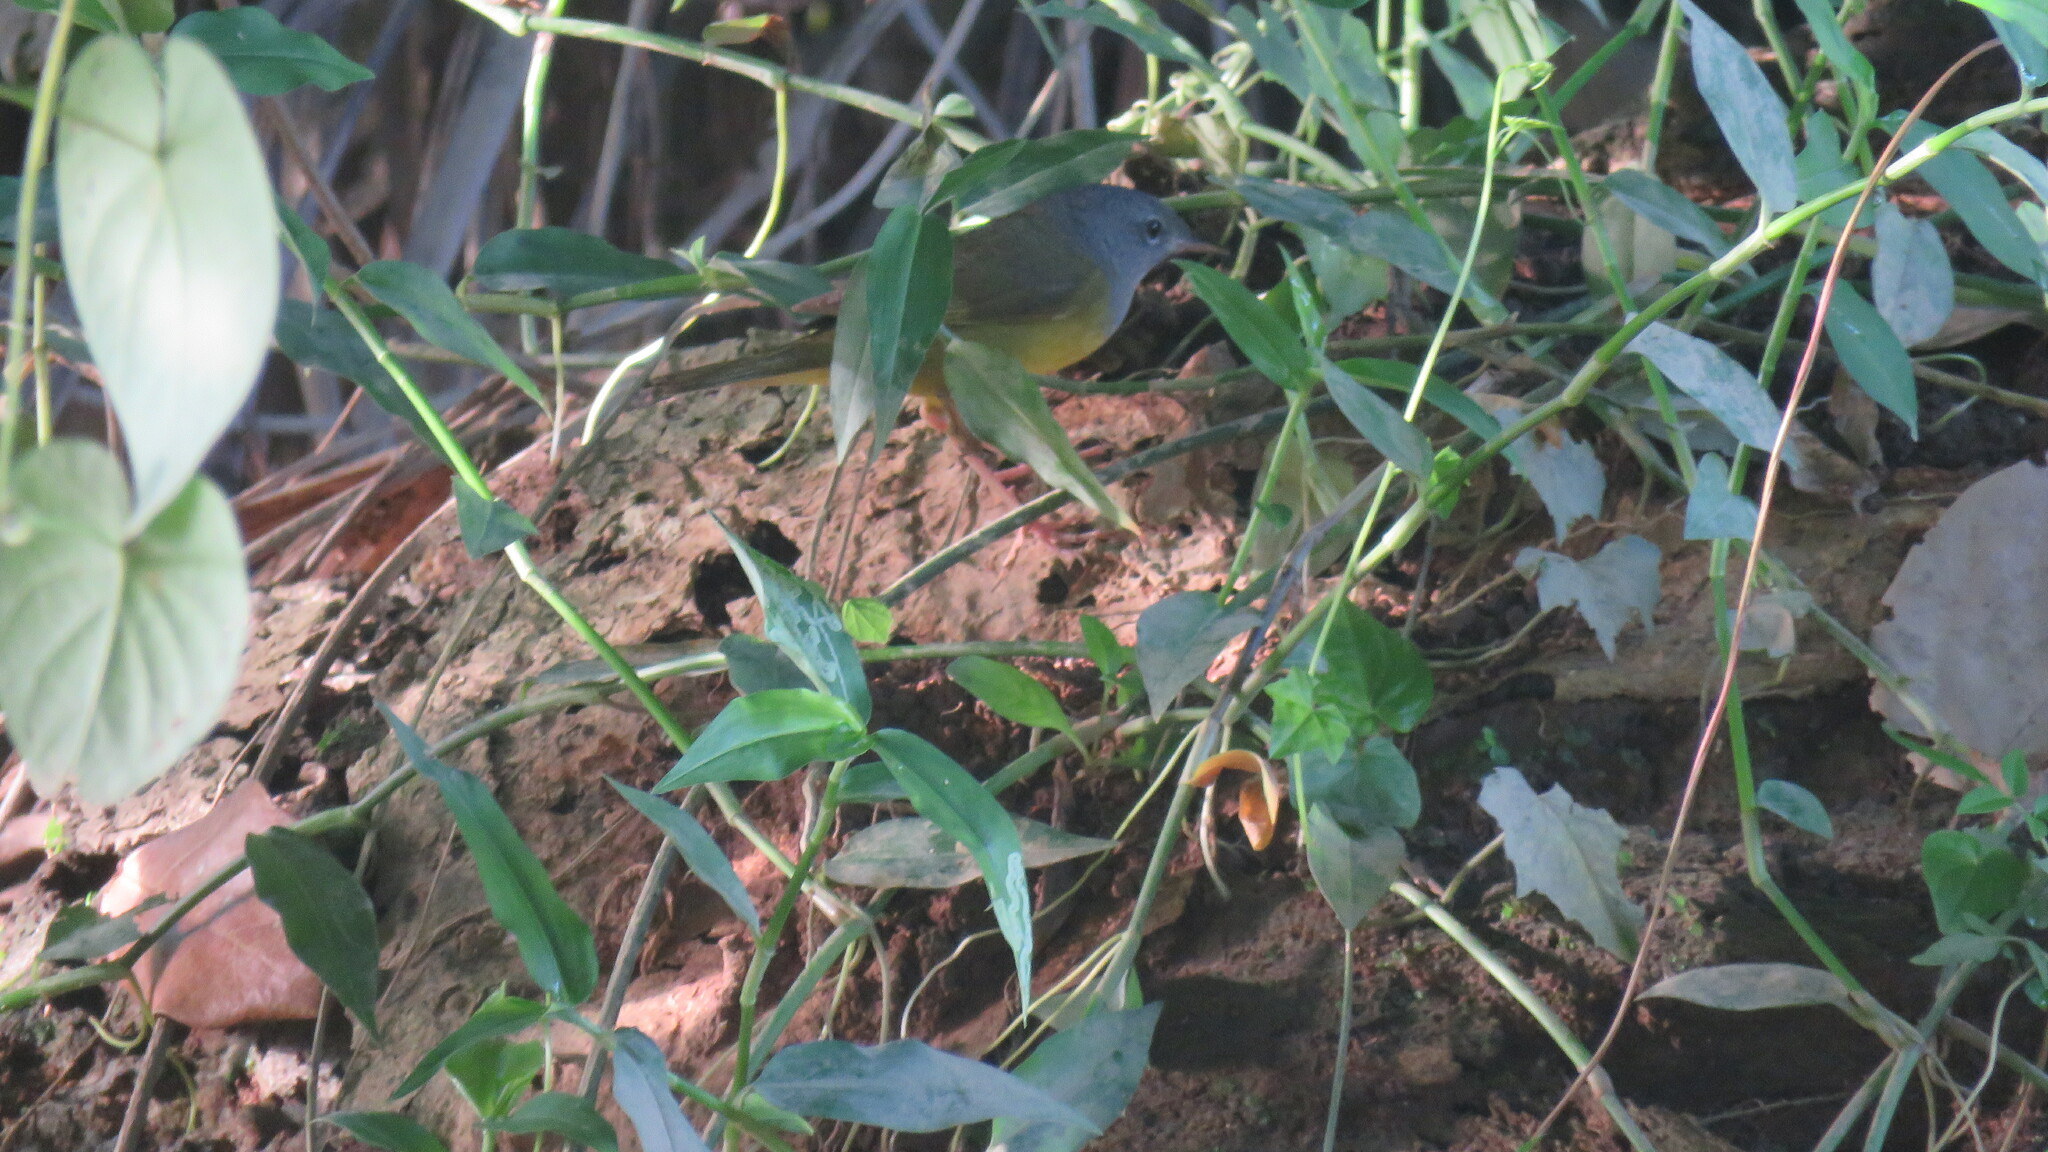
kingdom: Animalia
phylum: Chordata
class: Aves
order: Passeriformes
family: Parulidae
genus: Geothlypis
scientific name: Geothlypis philadelphia
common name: Mourning warbler
